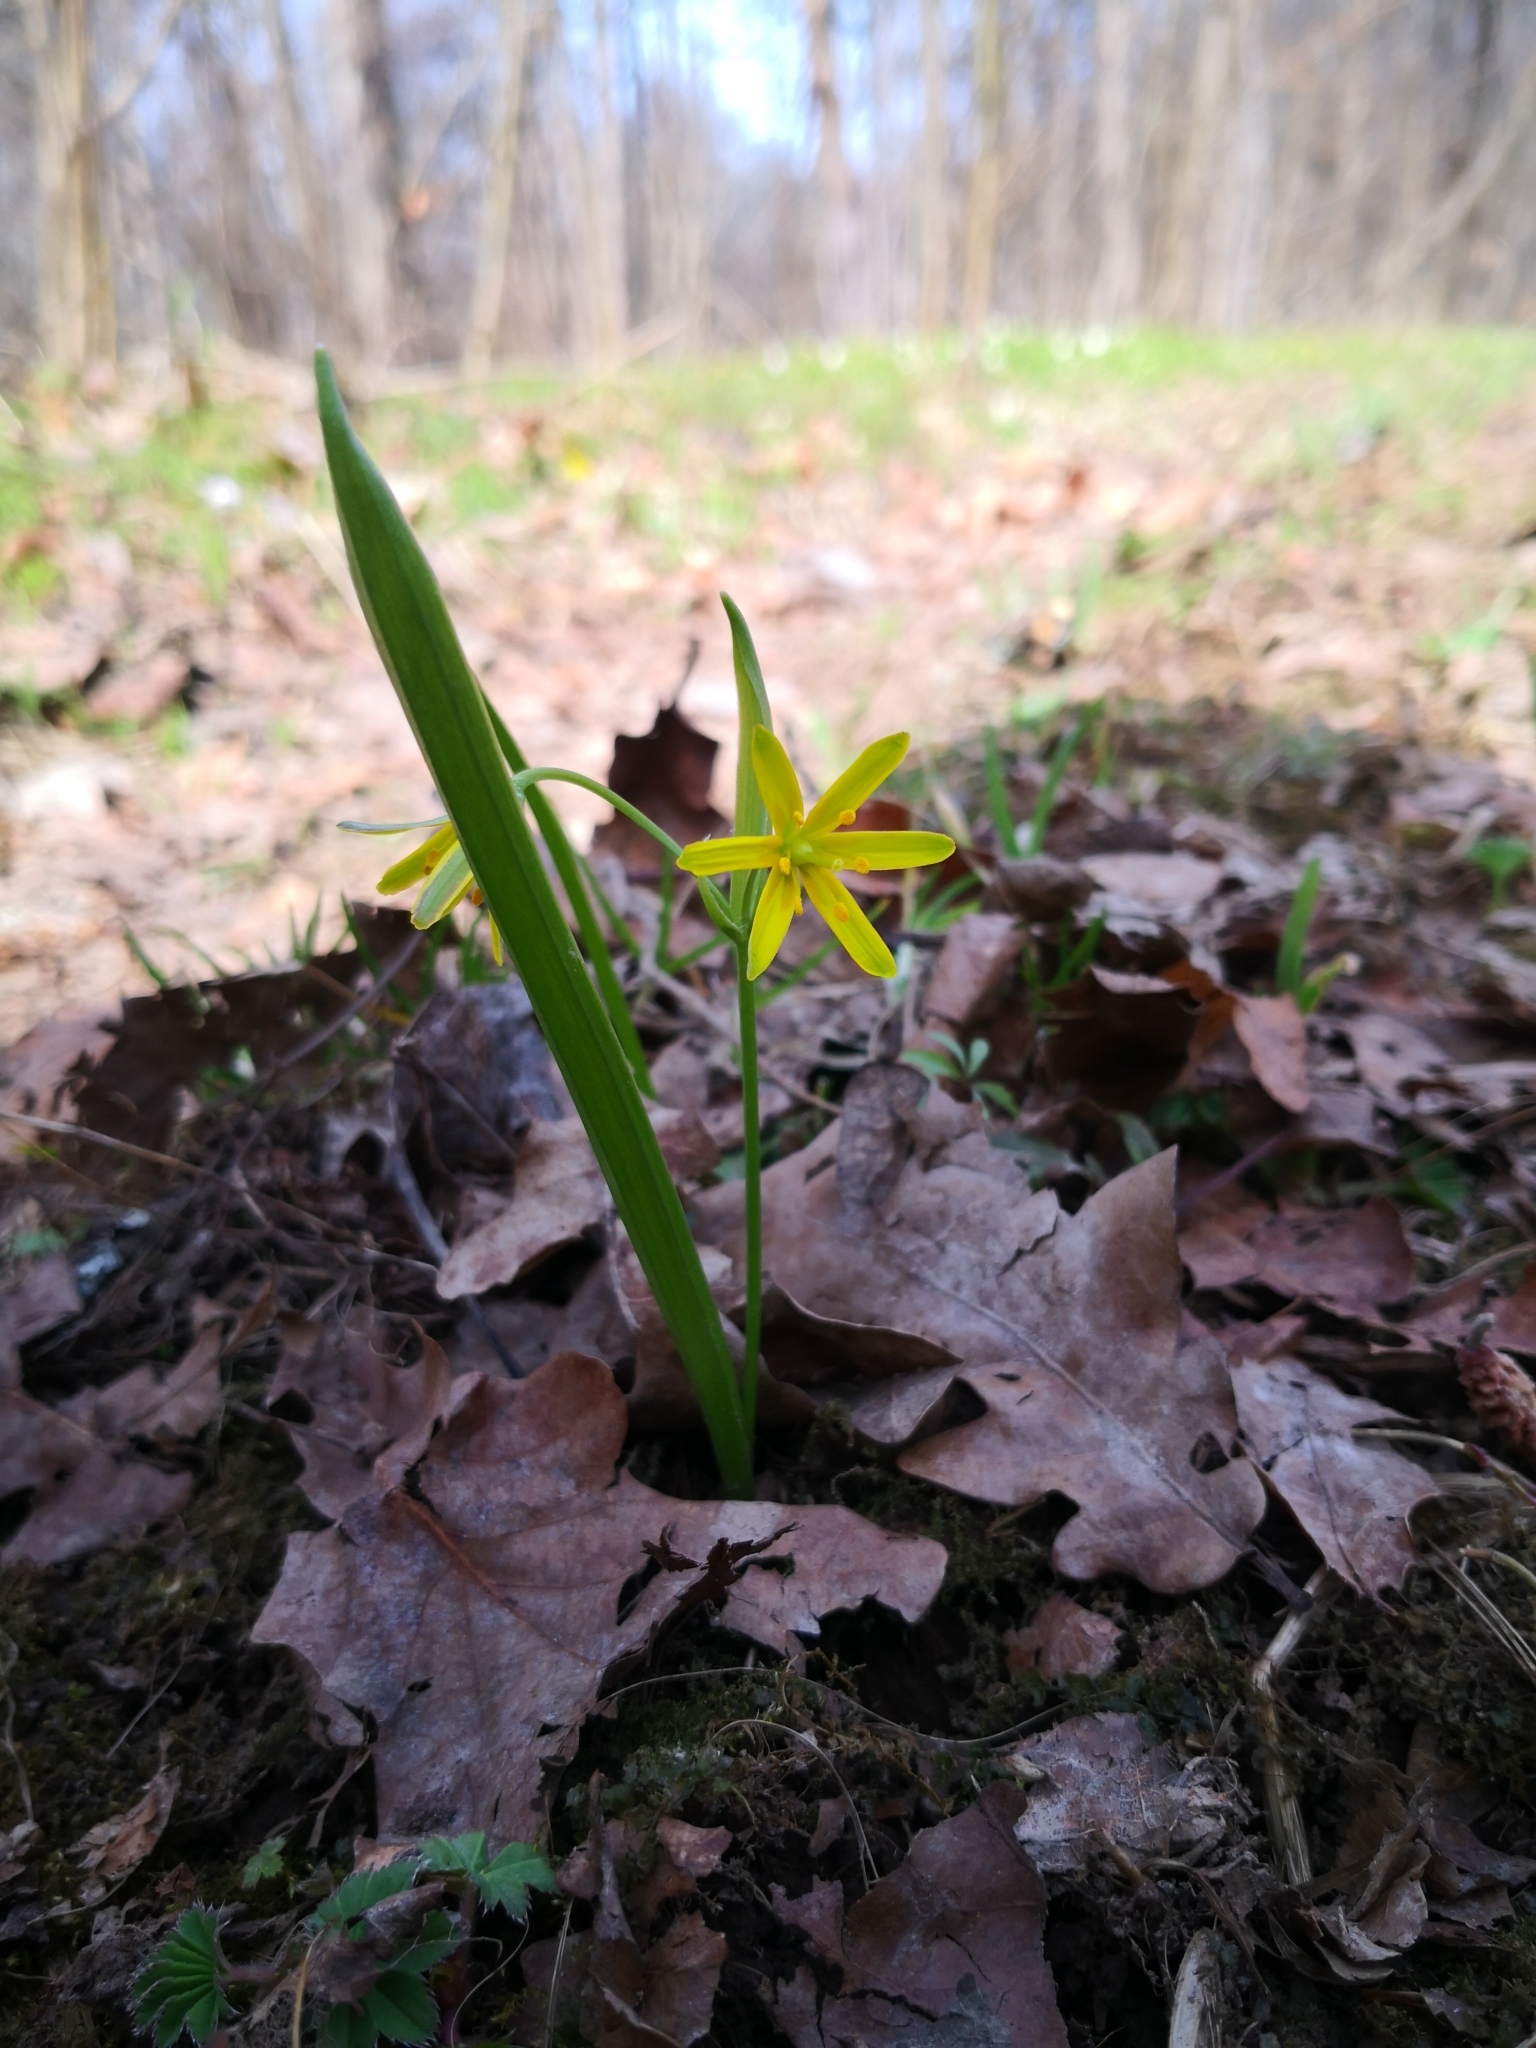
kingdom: Plantae
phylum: Tracheophyta
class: Liliopsida
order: Liliales
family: Liliaceae
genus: Gagea
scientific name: Gagea lutea
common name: Yellow star-of-bethlehem
